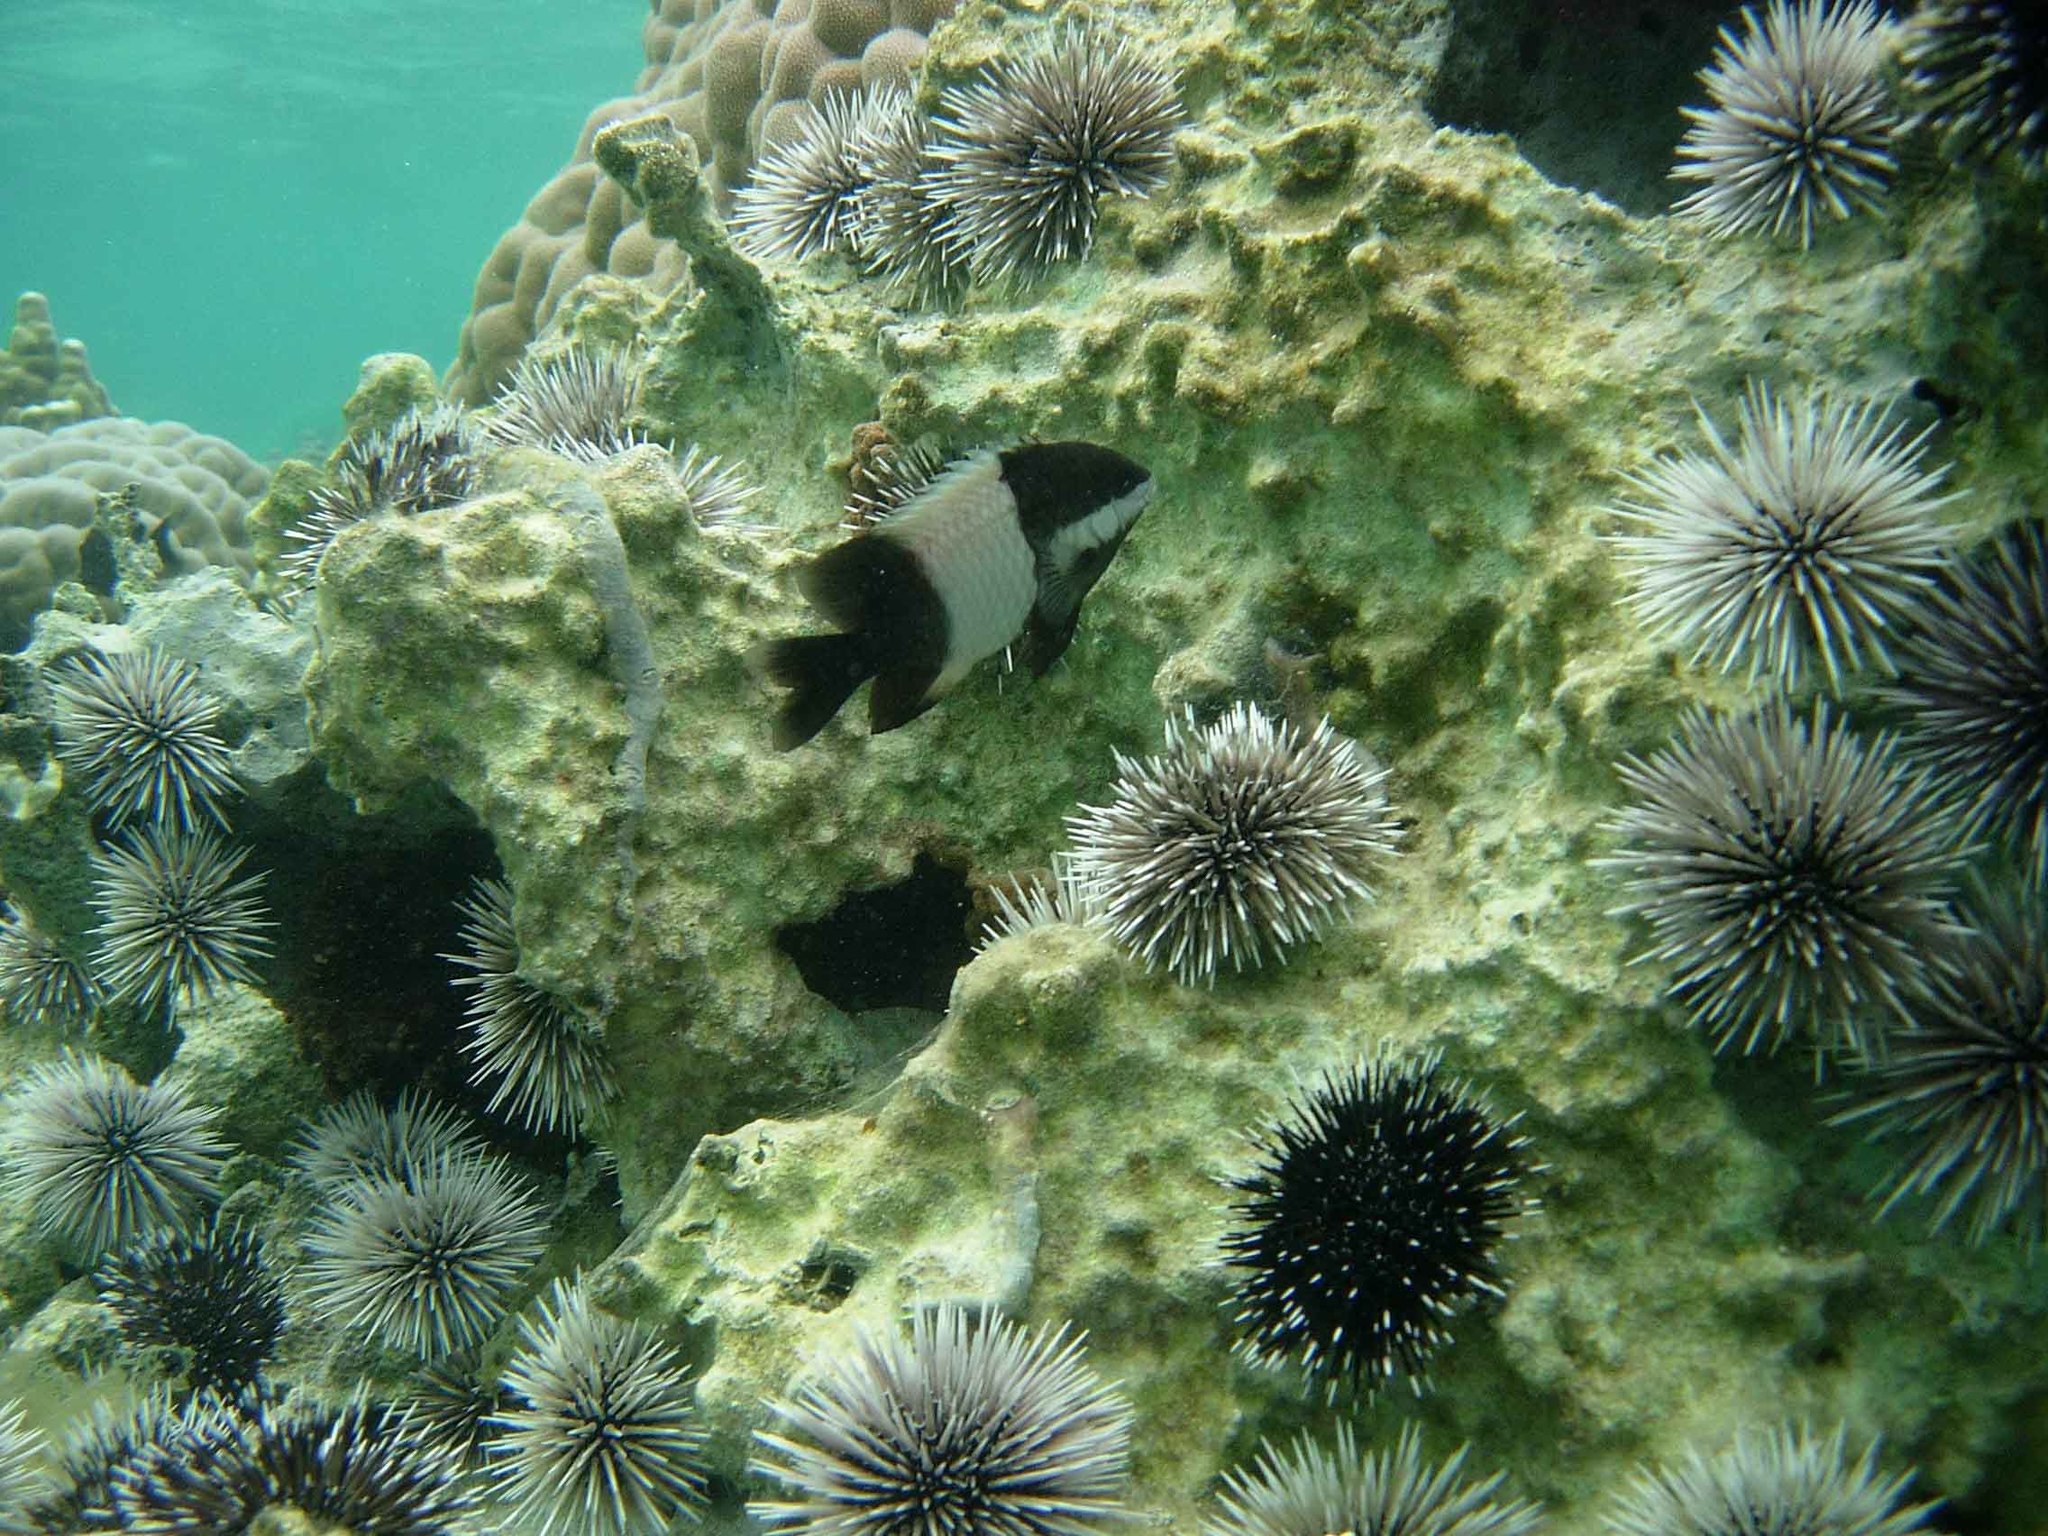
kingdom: Animalia
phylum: Chordata
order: Perciformes
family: Pomacentridae
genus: Stegastes
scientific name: Stegastes nigricans
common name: Dusky gregory
